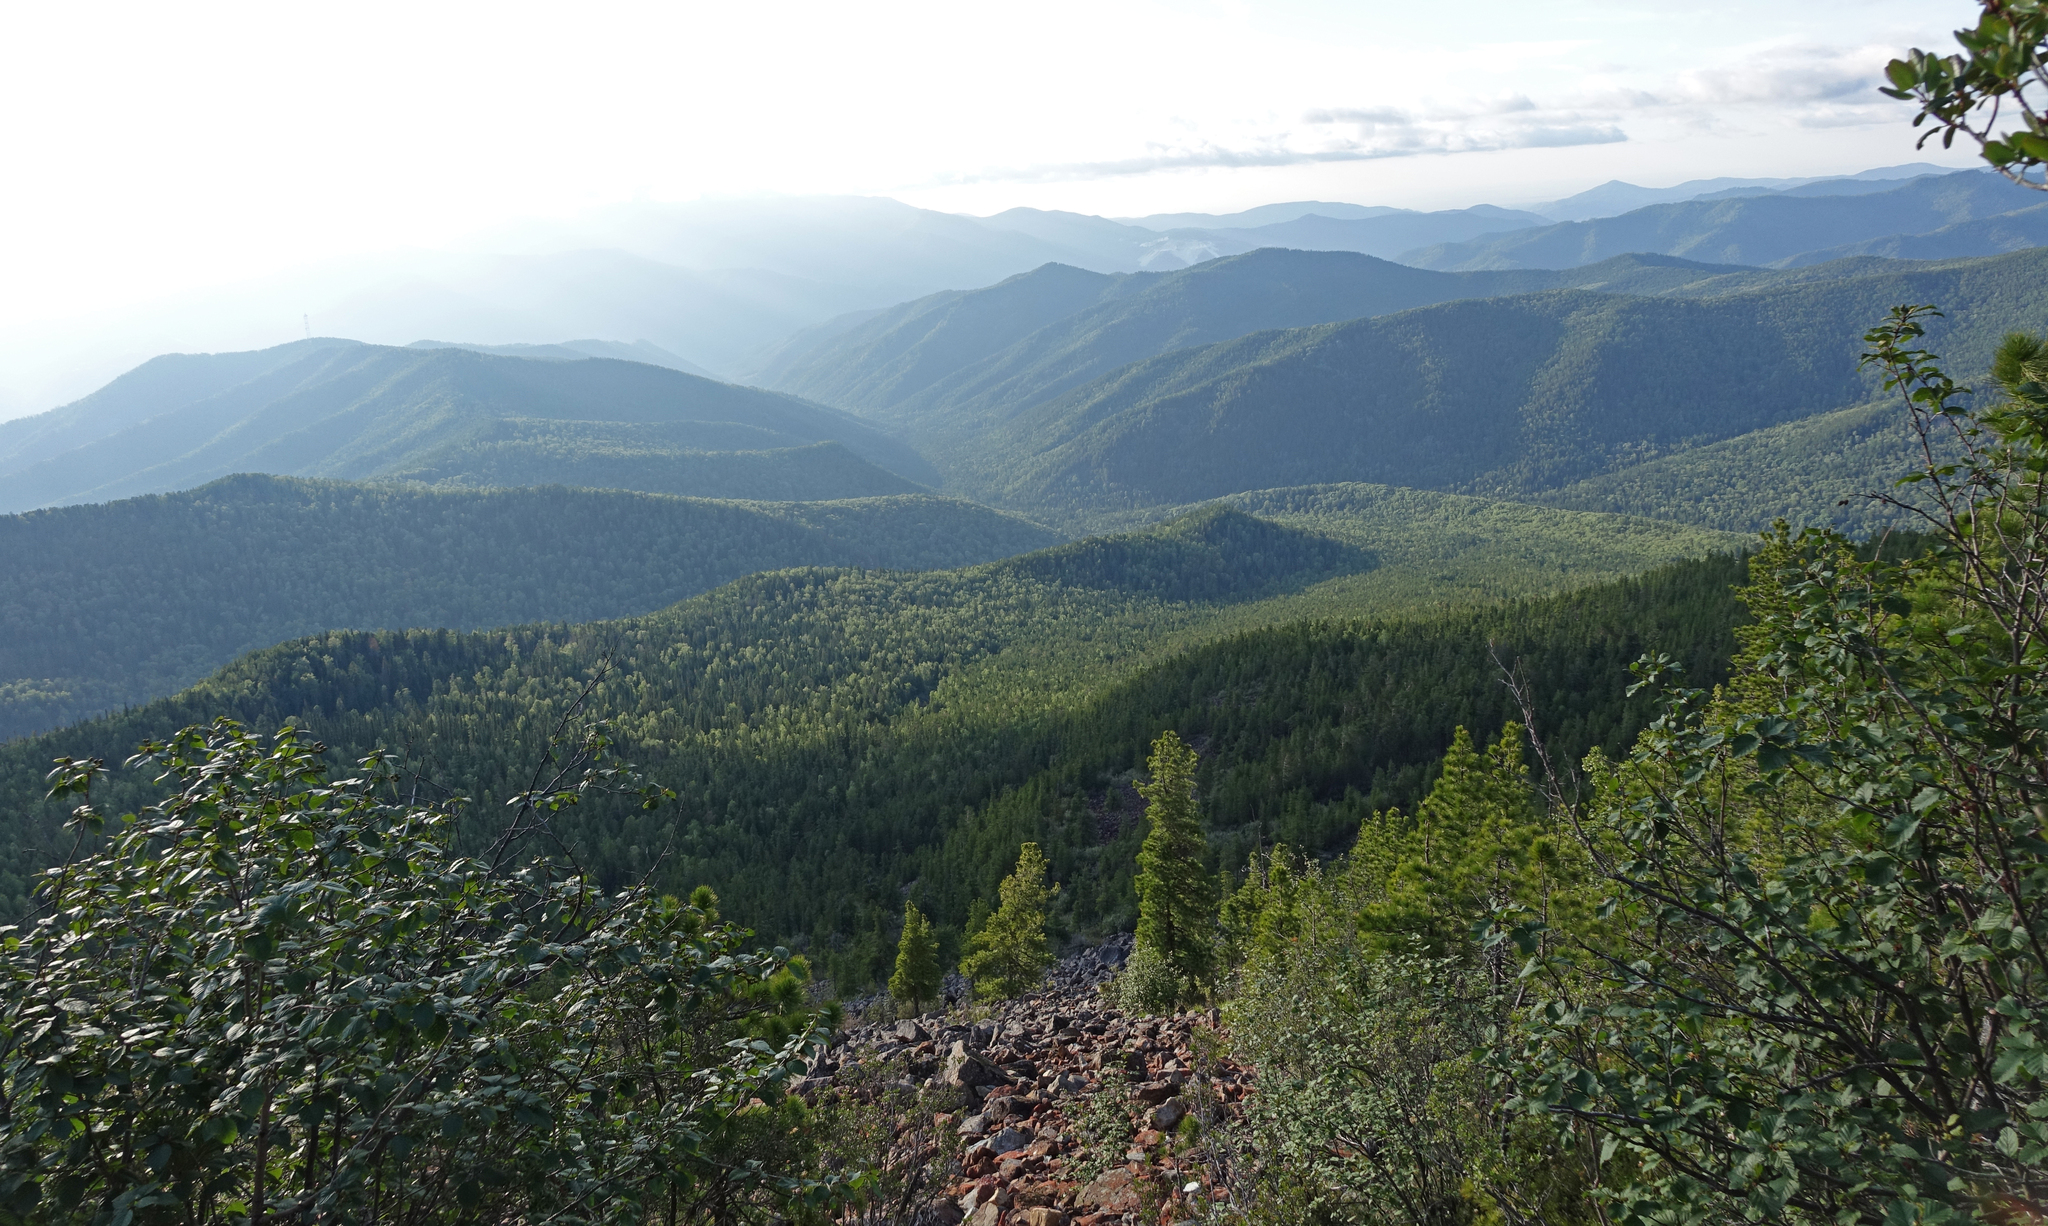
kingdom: Plantae
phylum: Tracheophyta
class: Magnoliopsida
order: Fagales
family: Betulaceae
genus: Alnus
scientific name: Alnus alnobetula
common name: Green alder
